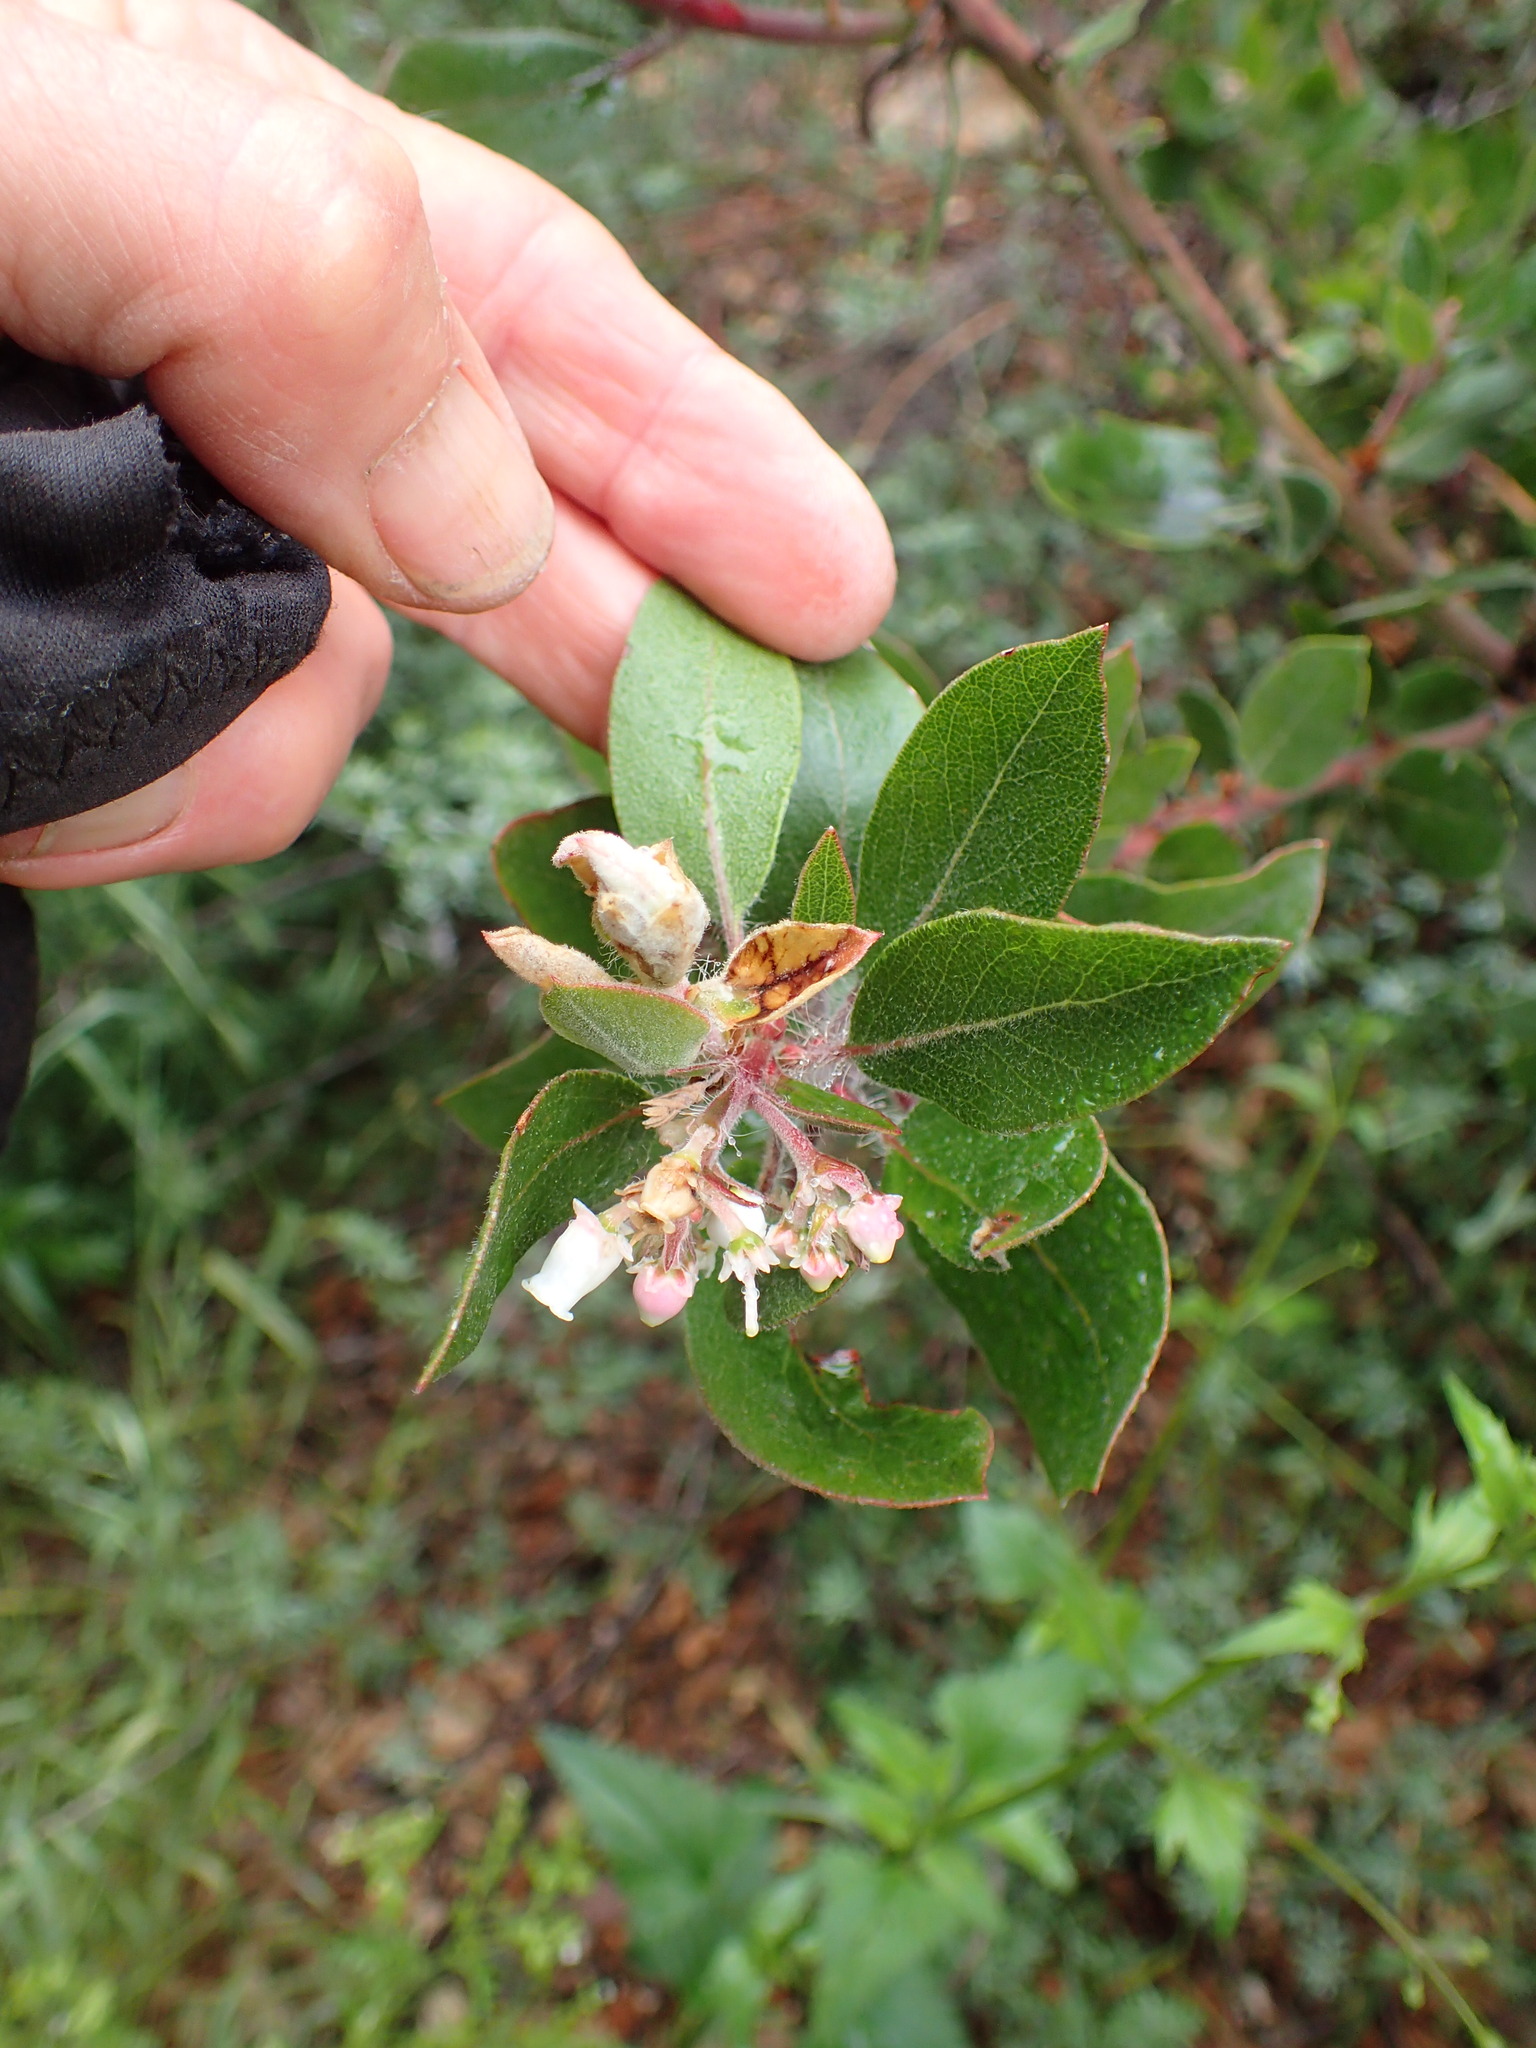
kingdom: Plantae
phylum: Tracheophyta
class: Magnoliopsida
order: Ericales
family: Ericaceae
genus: Arctostaphylos
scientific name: Arctostaphylos crustacea
